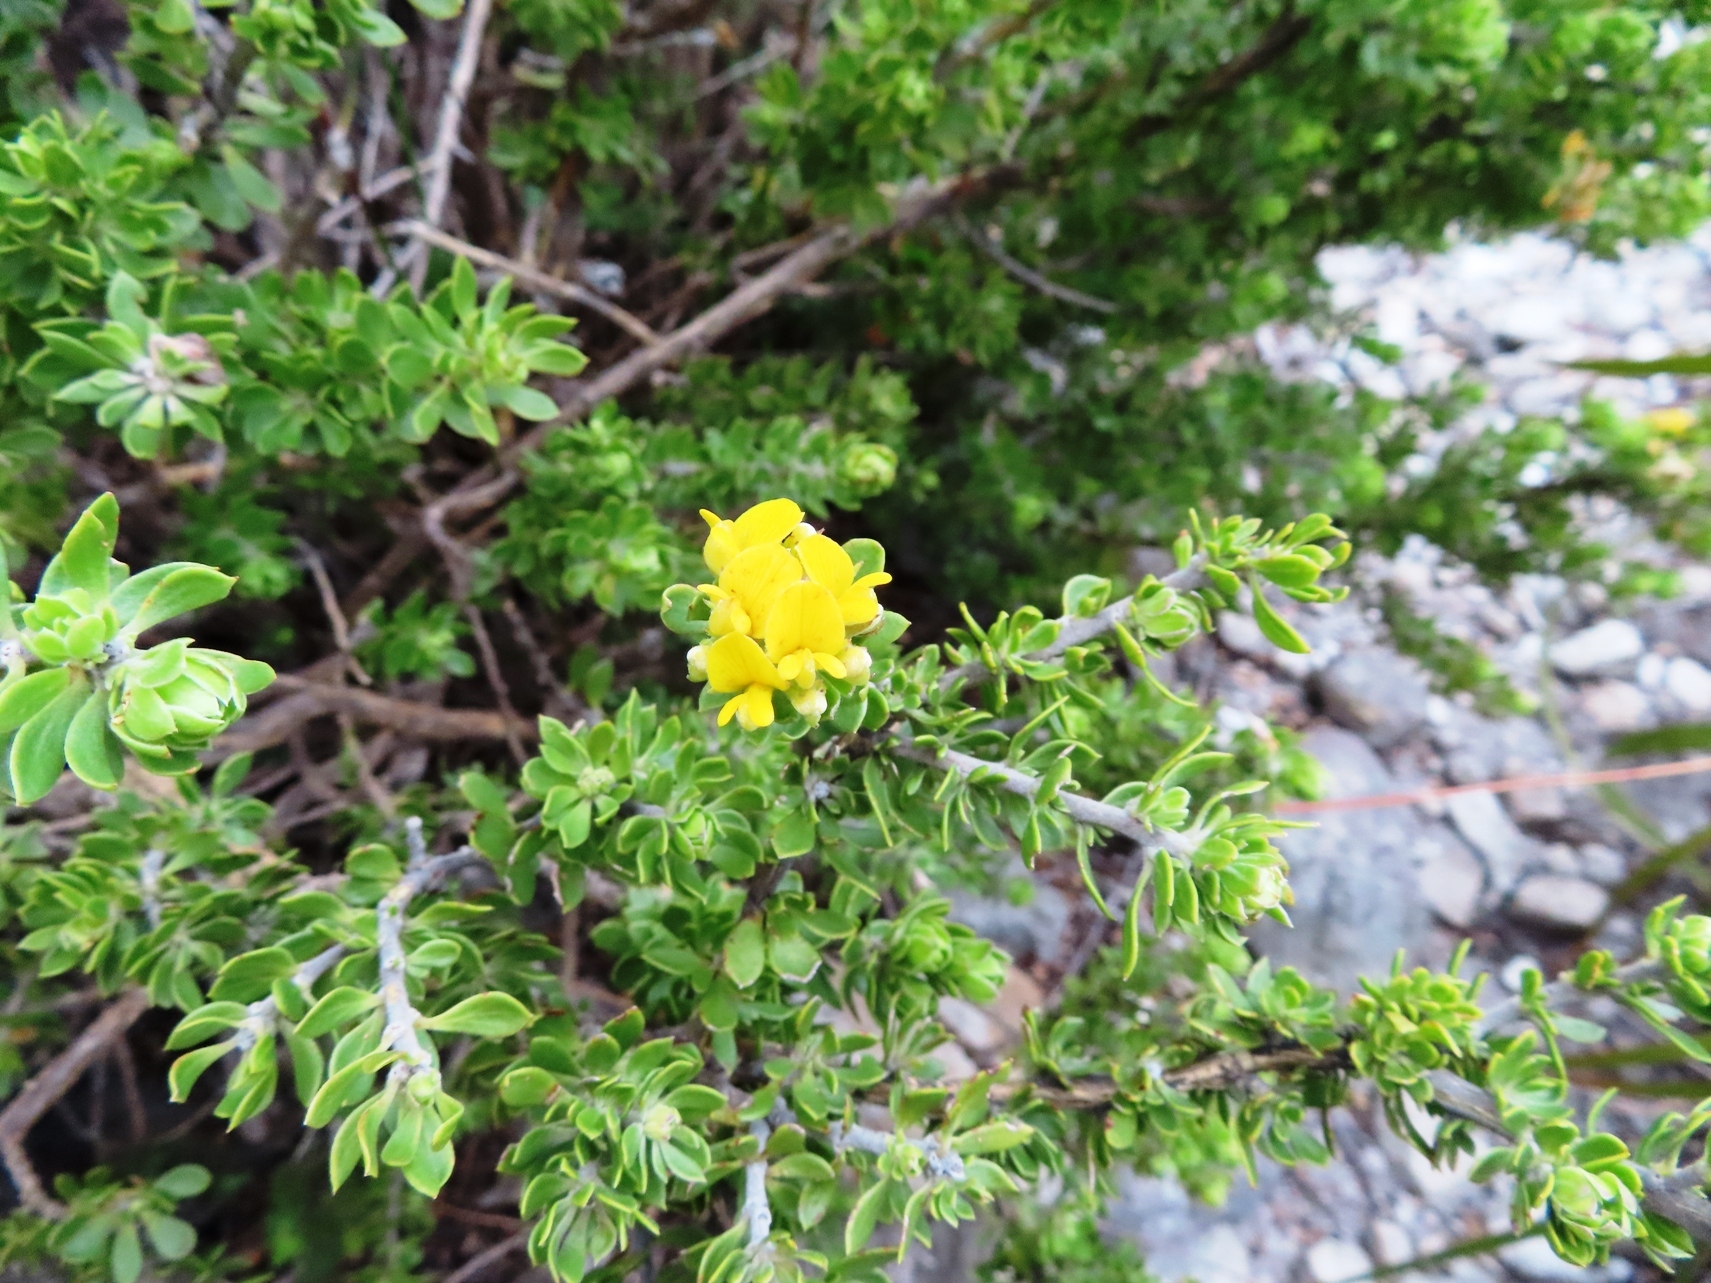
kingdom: Plantae
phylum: Tracheophyta
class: Magnoliopsida
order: Fabales
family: Fabaceae
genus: Aspalathus
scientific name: Aspalathus securifolia
